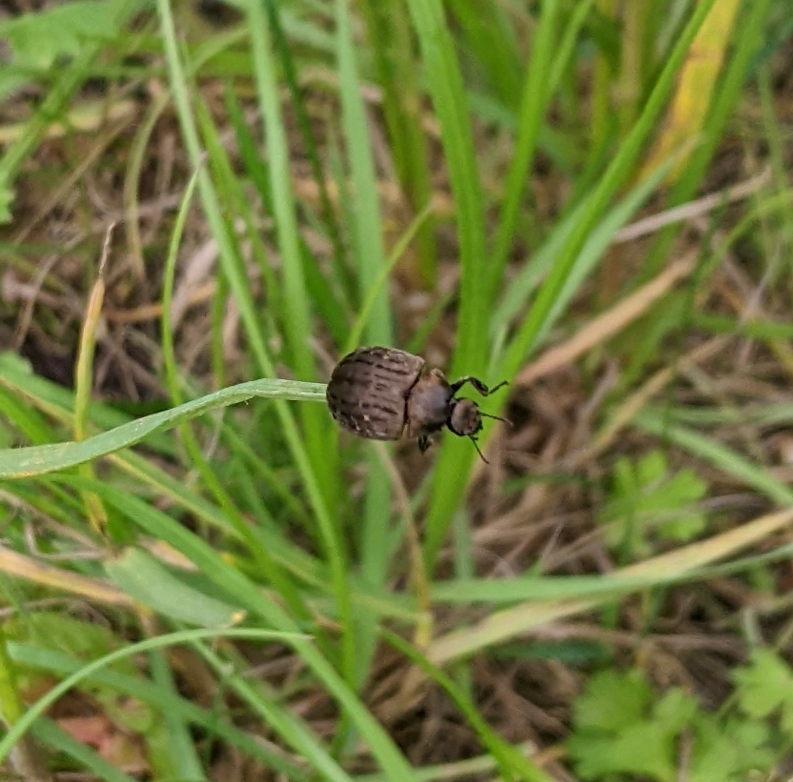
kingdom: Animalia
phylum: Arthropoda
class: Insecta
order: Coleoptera
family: Byrrhidae
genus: Byrrhus
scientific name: Byrrhus pilula
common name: Pill beetle
